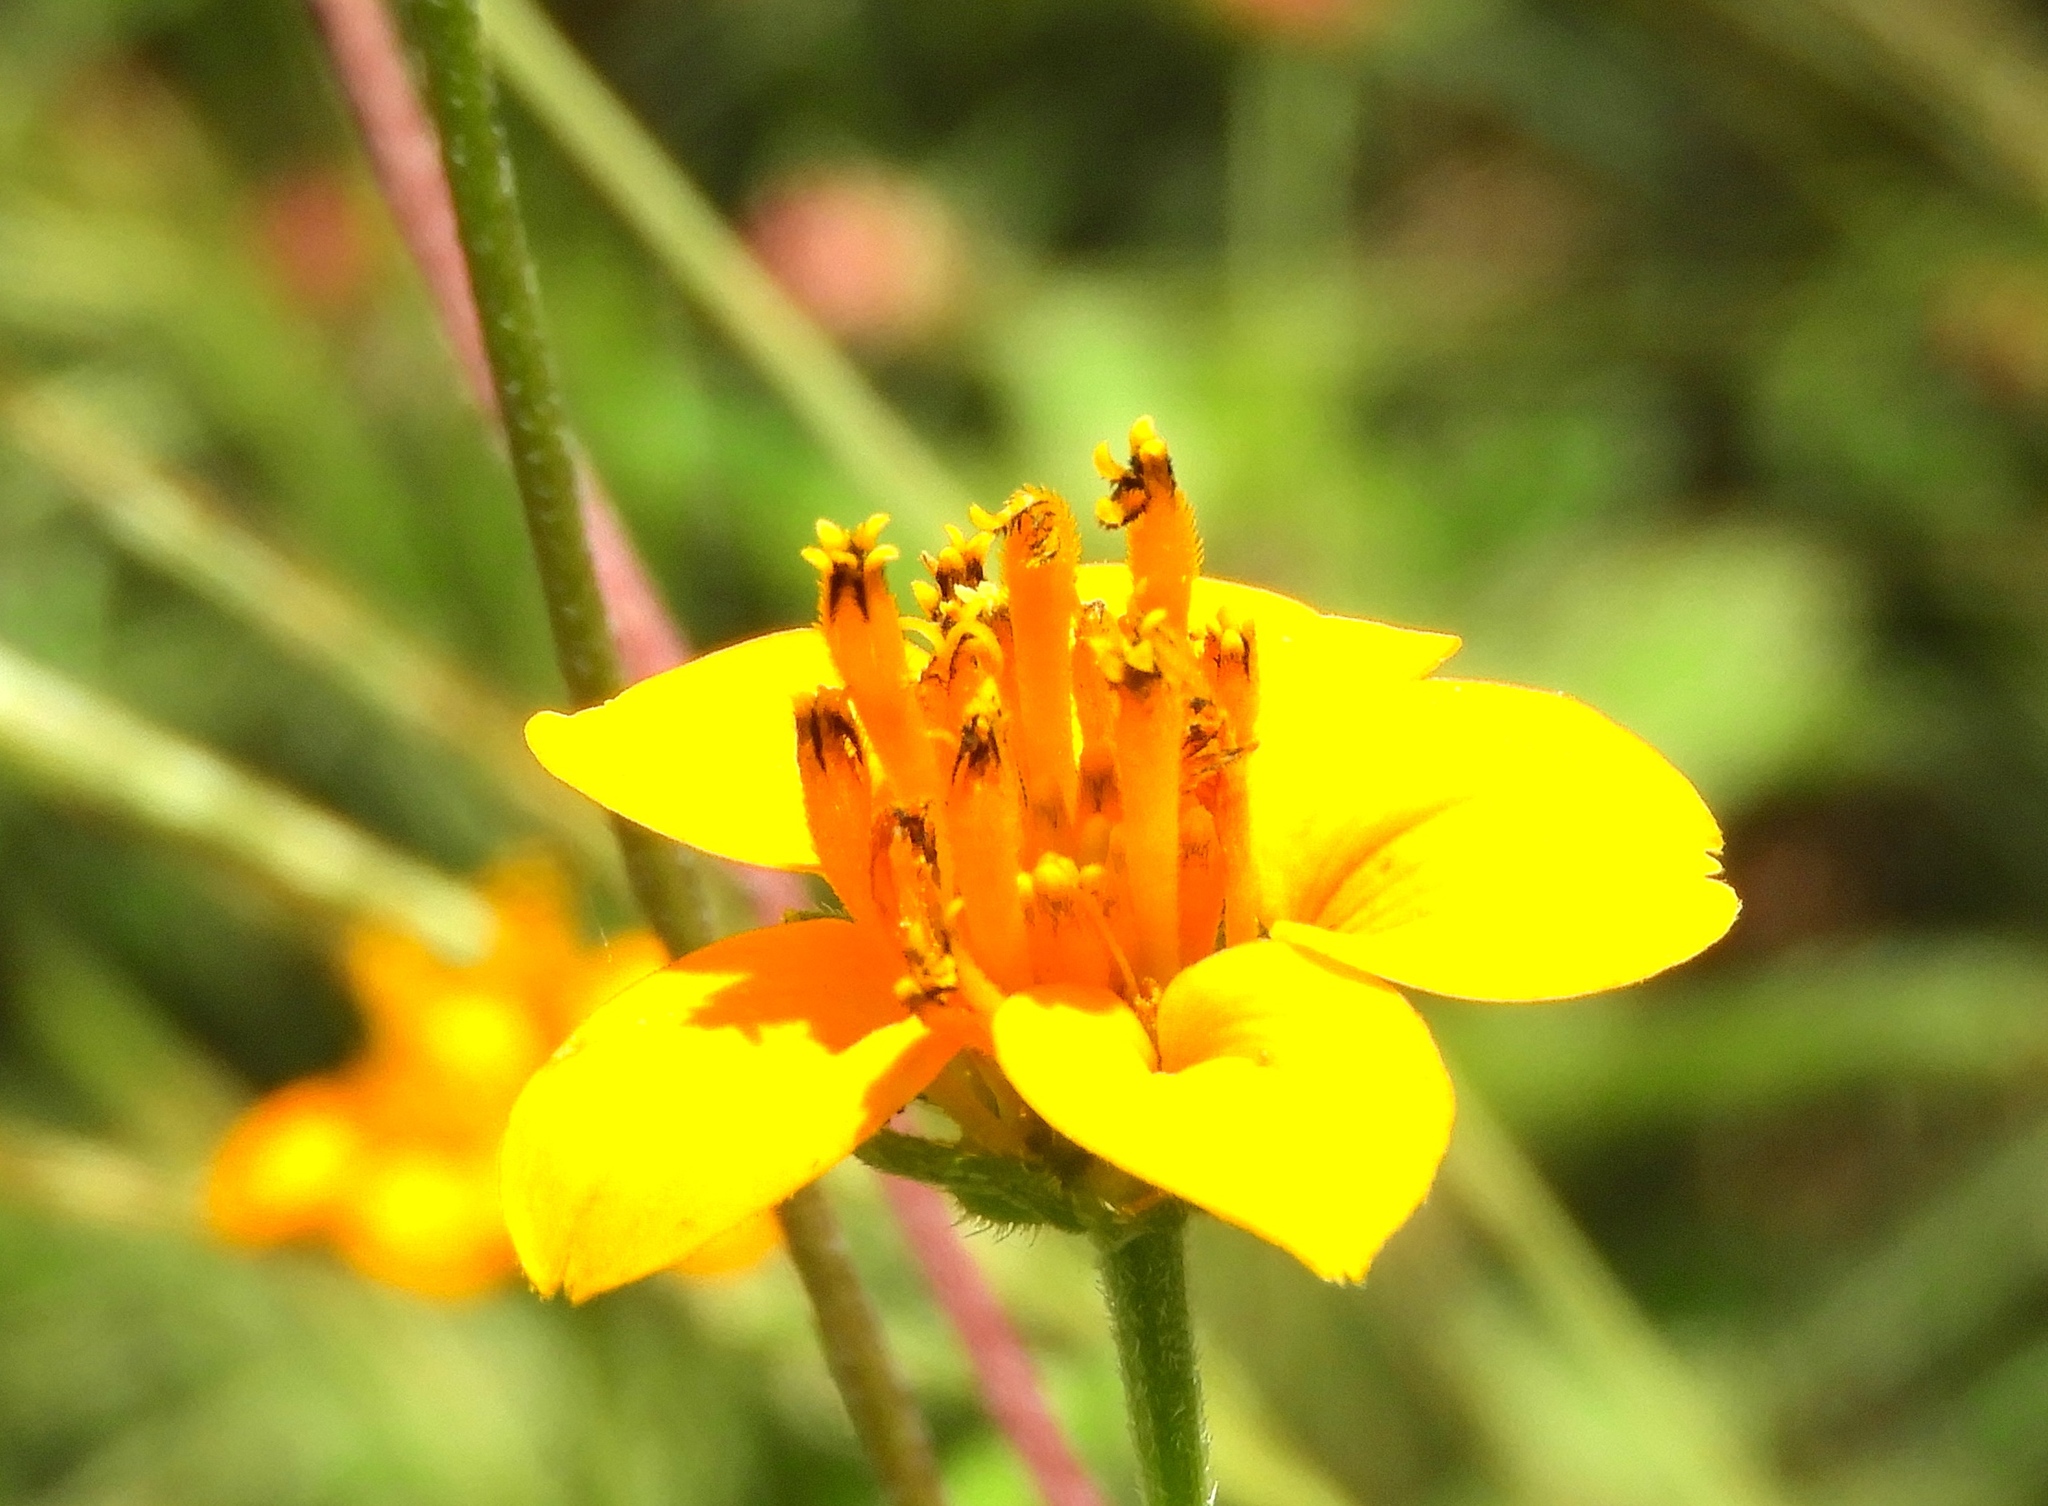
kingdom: Plantae
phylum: Tracheophyta
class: Magnoliopsida
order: Asterales
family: Asteraceae
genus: Sclerocarpus
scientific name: Sclerocarpus divaricatus
